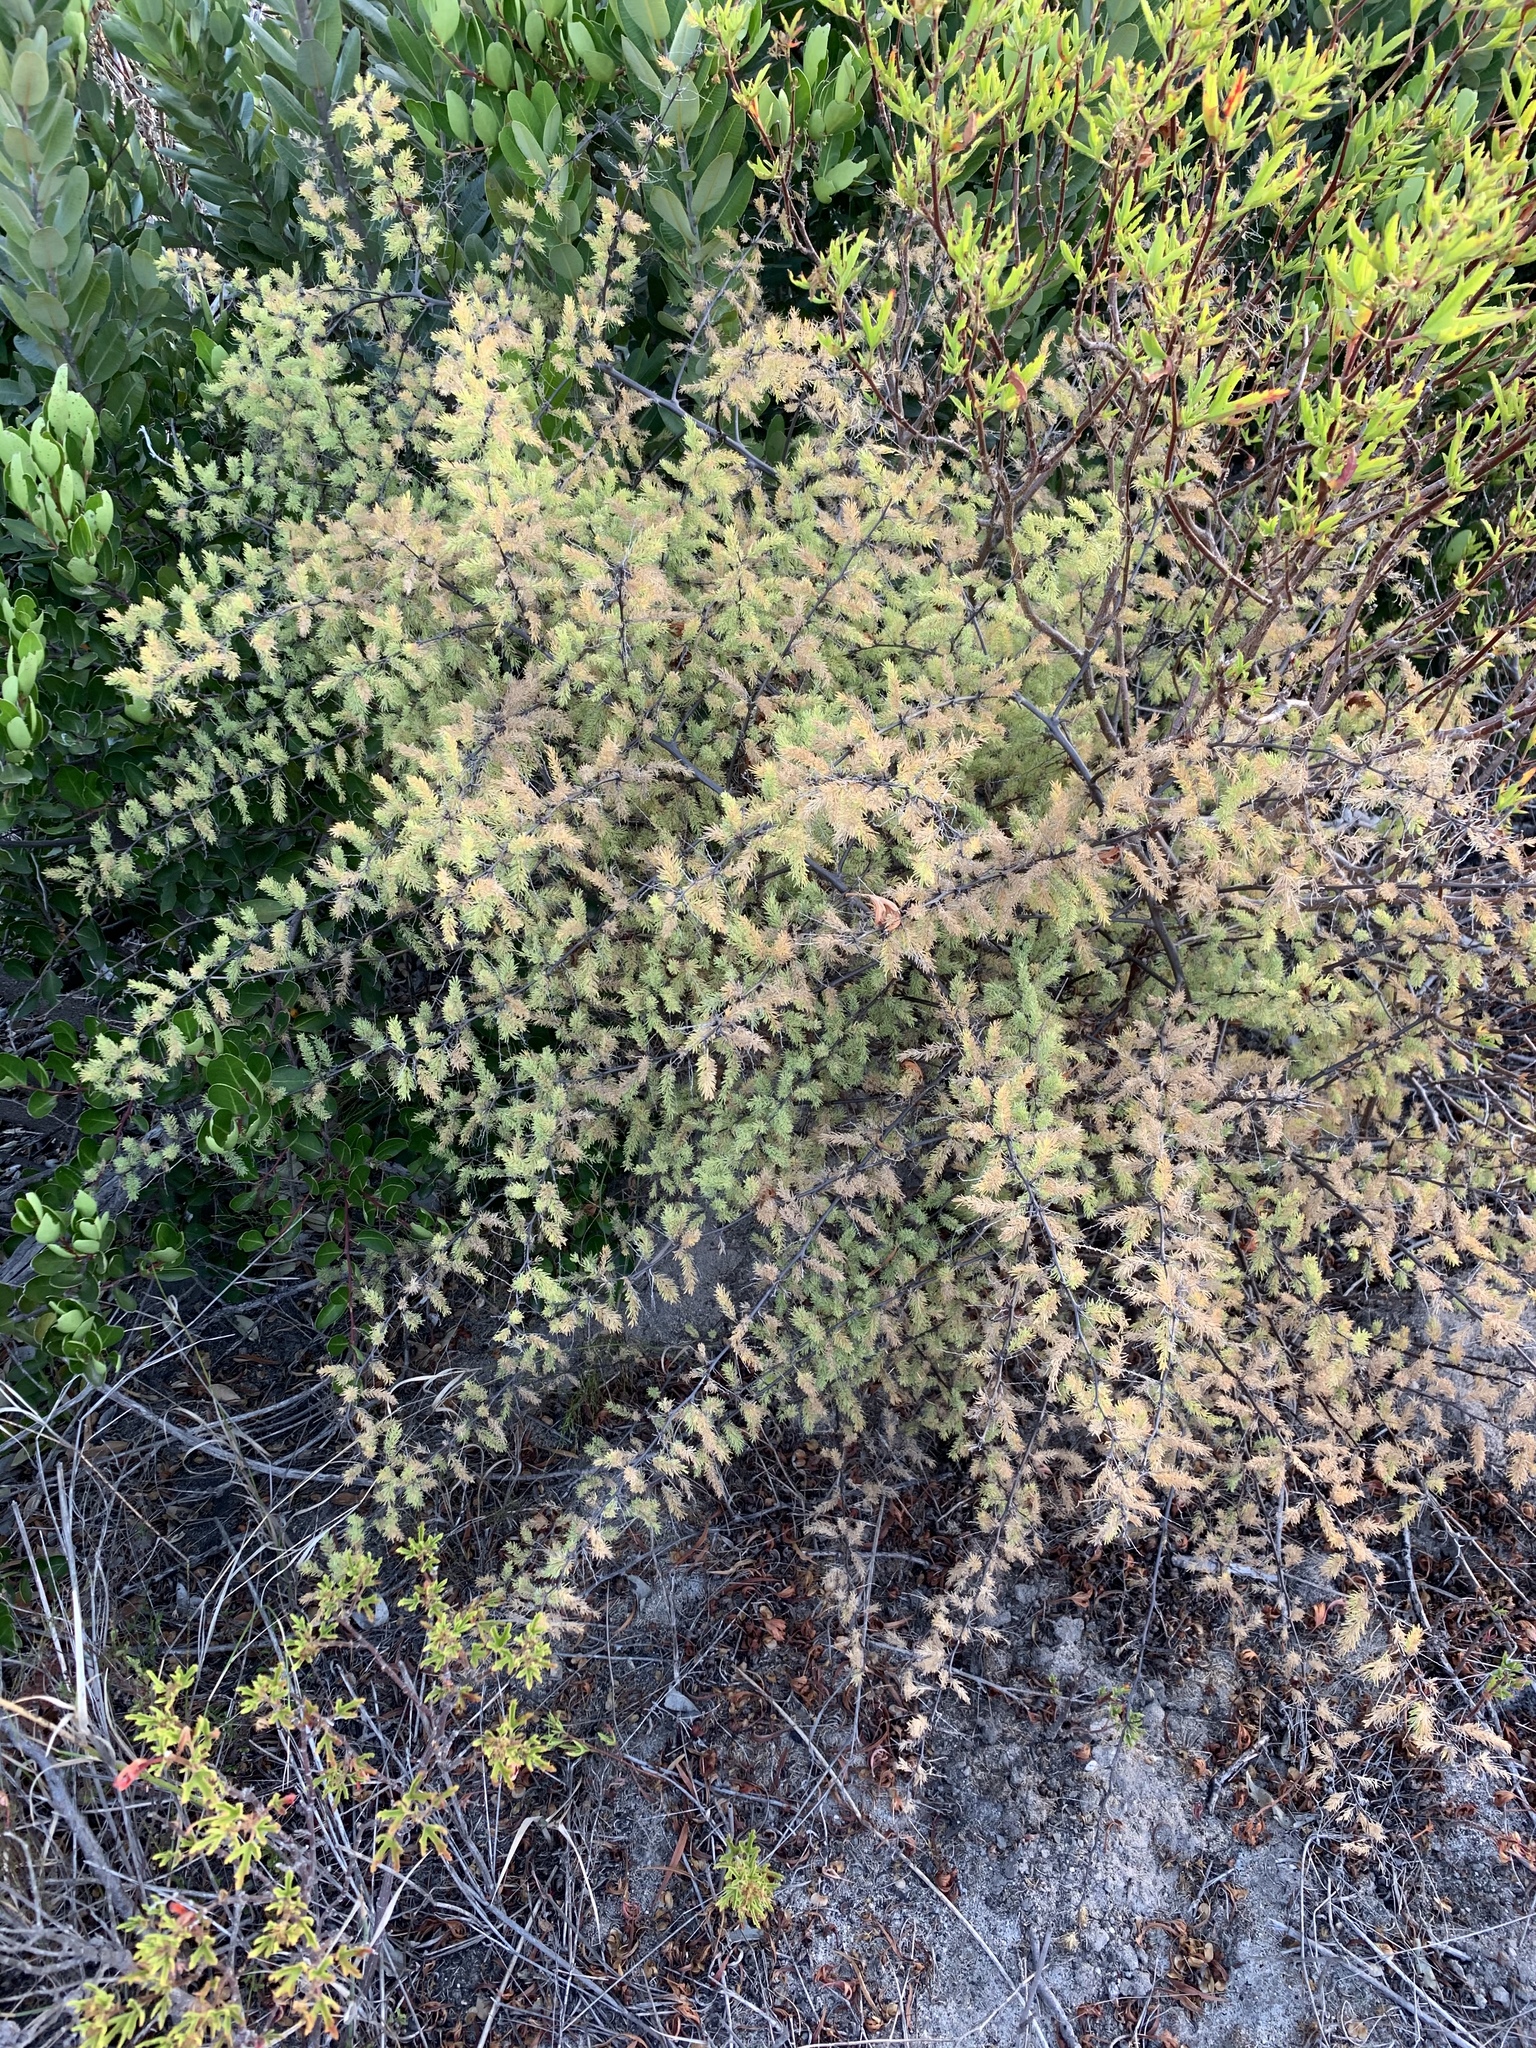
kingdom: Plantae
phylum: Tracheophyta
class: Liliopsida
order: Asparagales
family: Asparagaceae
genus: Asparagus
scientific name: Asparagus rubicundus
